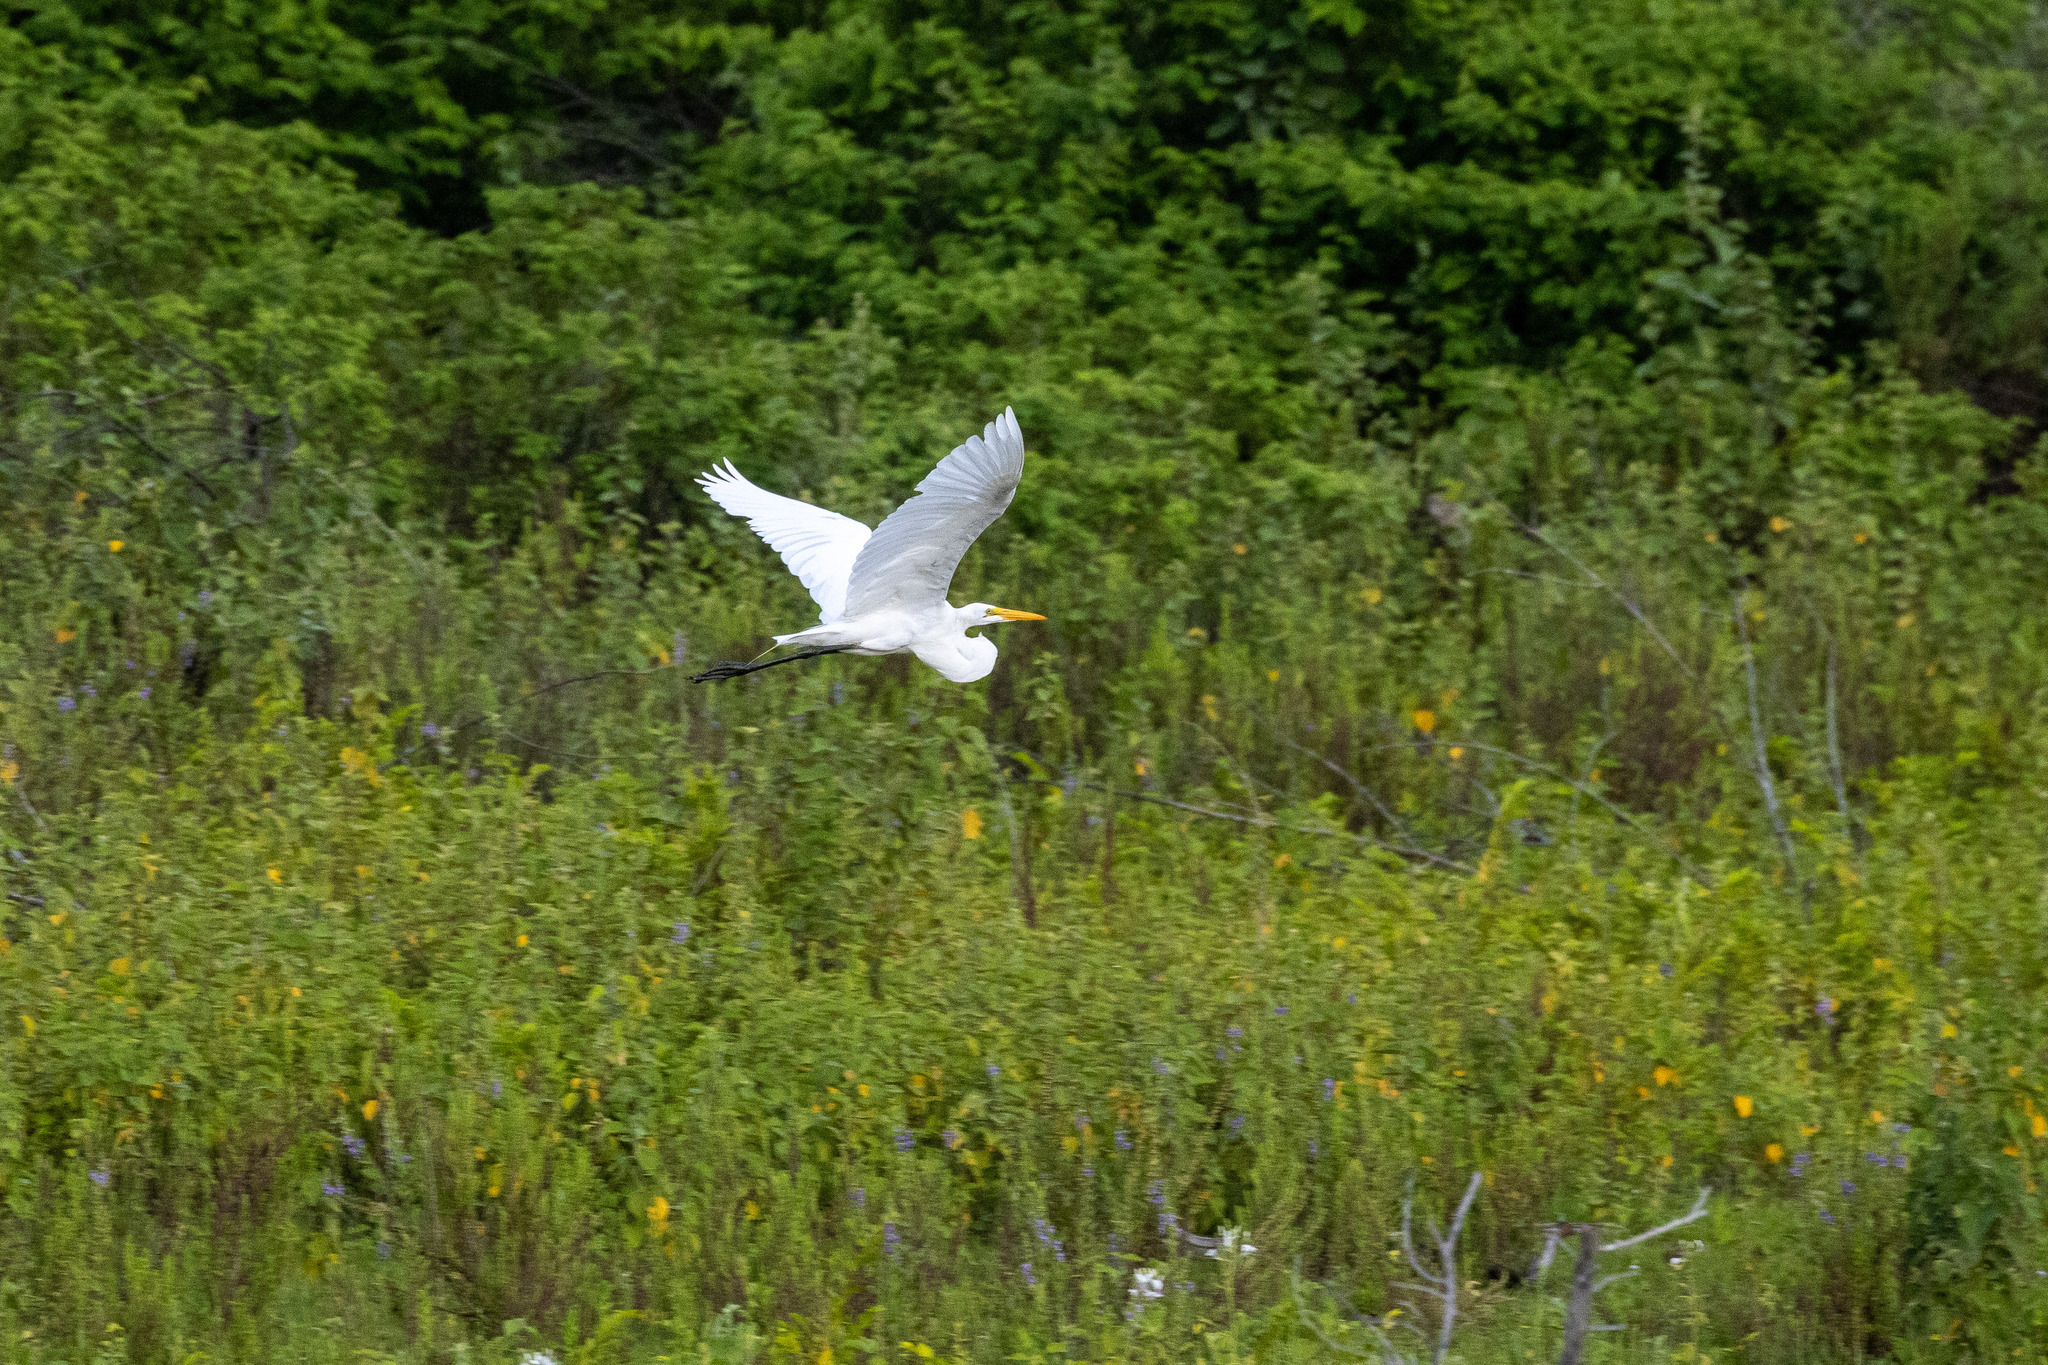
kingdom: Animalia
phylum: Chordata
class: Aves
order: Pelecaniformes
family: Ardeidae
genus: Ardea
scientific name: Ardea alba
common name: Great egret
